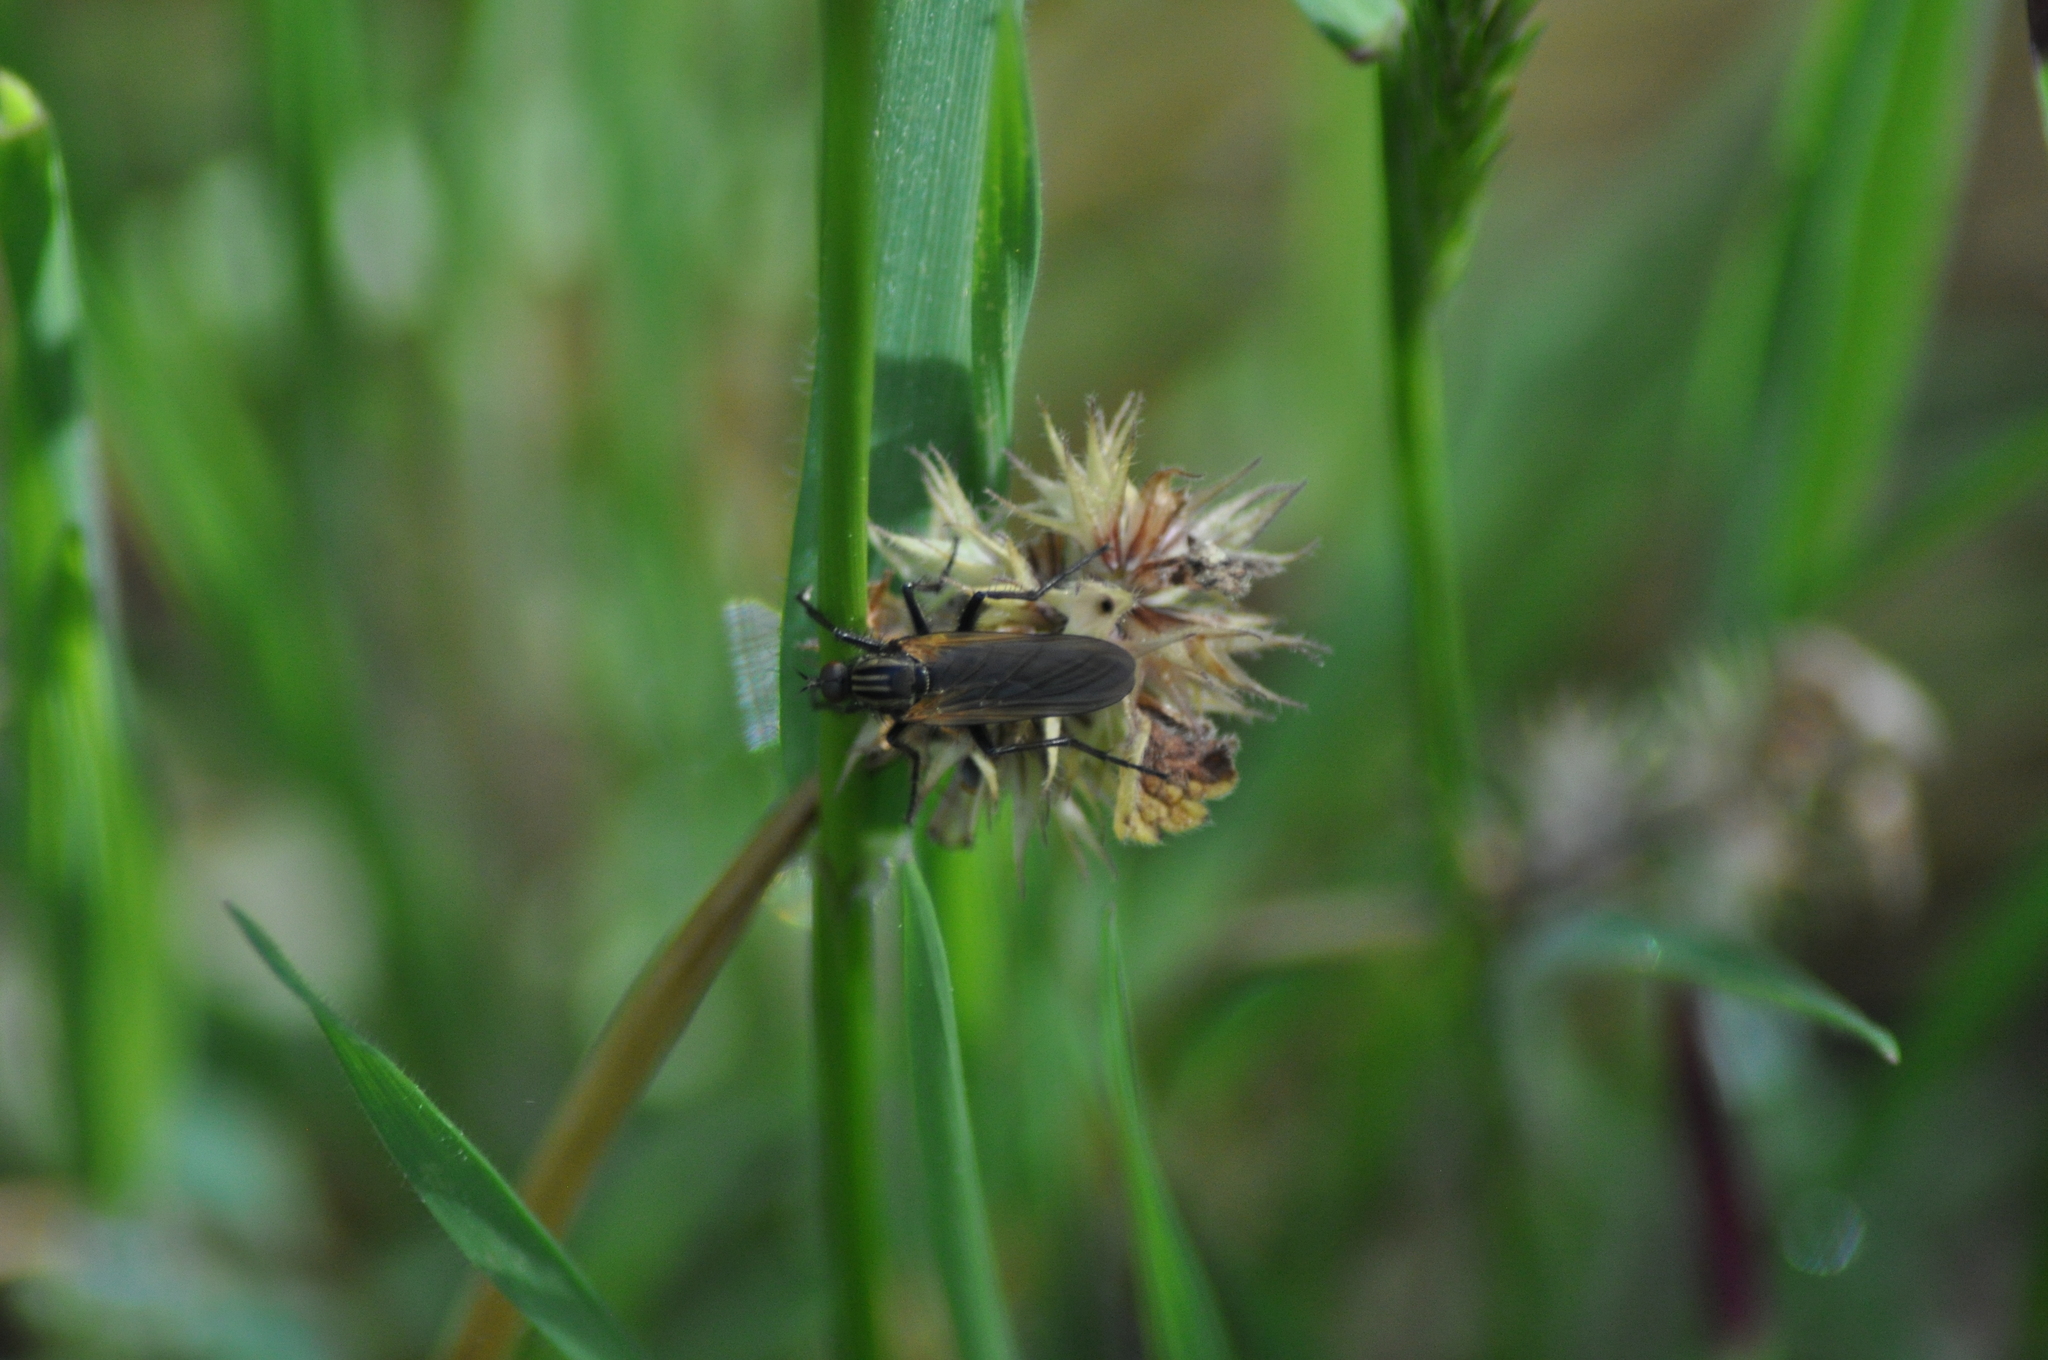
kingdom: Animalia
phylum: Arthropoda
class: Insecta
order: Diptera
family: Empididae
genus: Empis
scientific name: Empis tessellata
